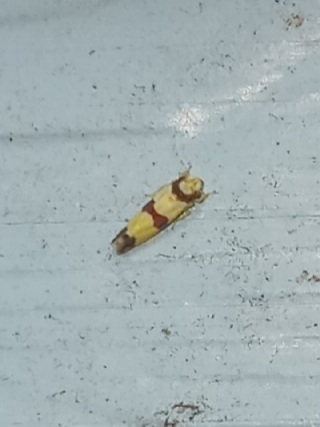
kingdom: Animalia
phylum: Arthropoda
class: Insecta
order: Hemiptera
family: Cicadellidae
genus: Erythroneura
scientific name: Erythroneura calycula
